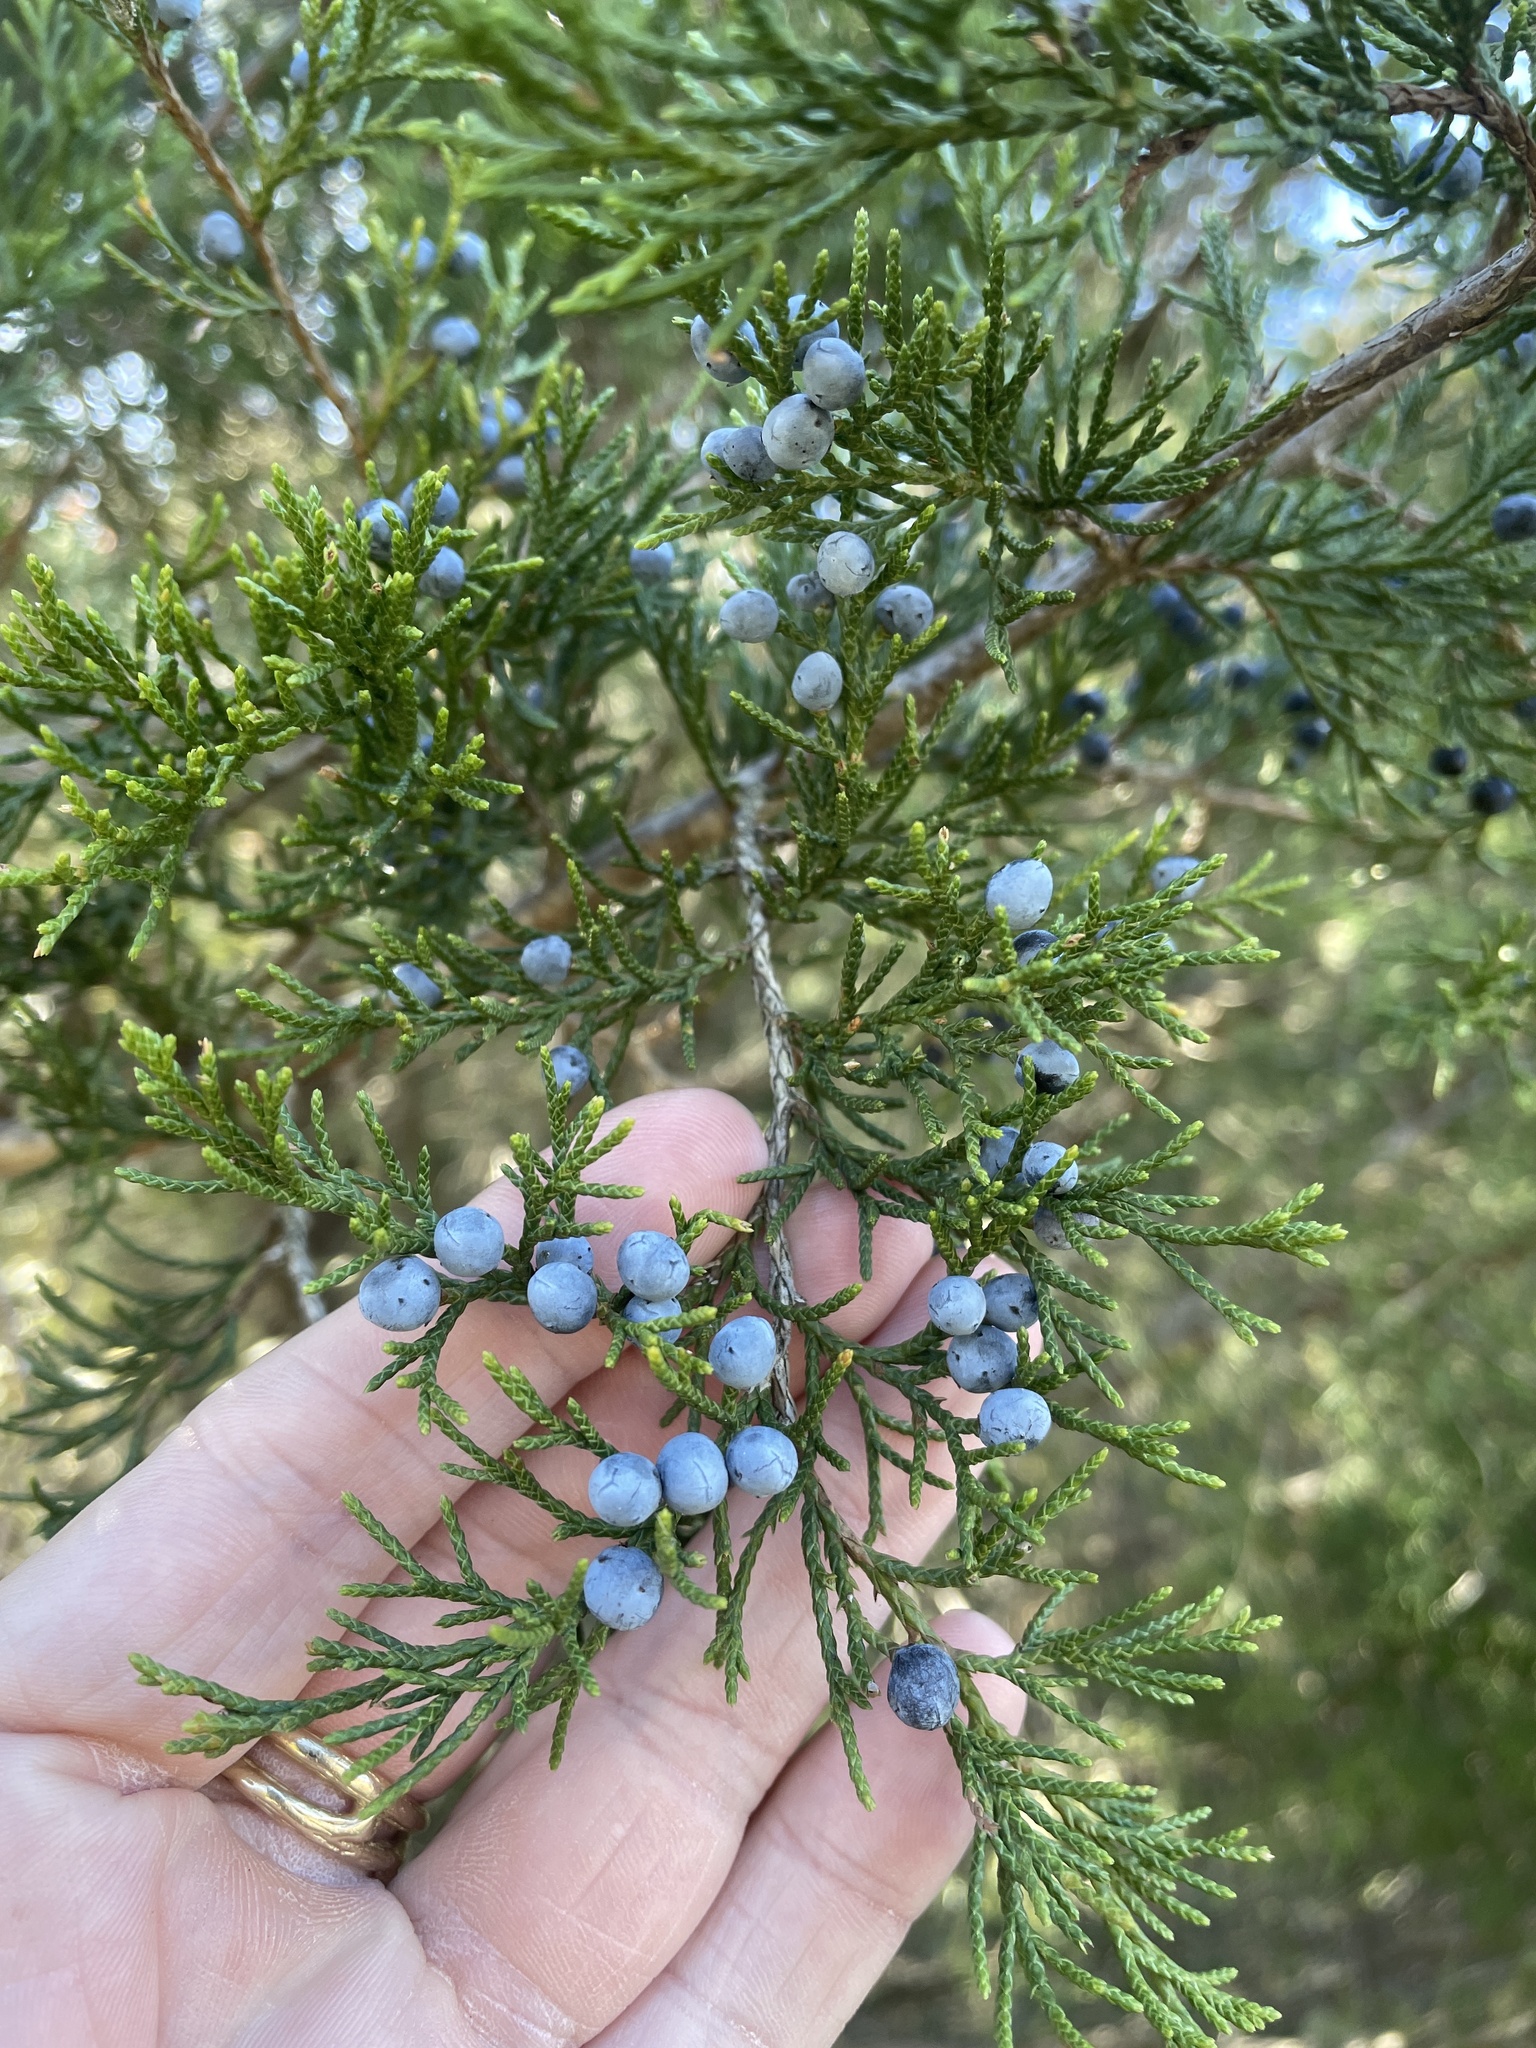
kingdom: Plantae
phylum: Tracheophyta
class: Pinopsida
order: Pinales
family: Cupressaceae
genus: Juniperus
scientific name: Juniperus virginiana
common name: Red juniper
